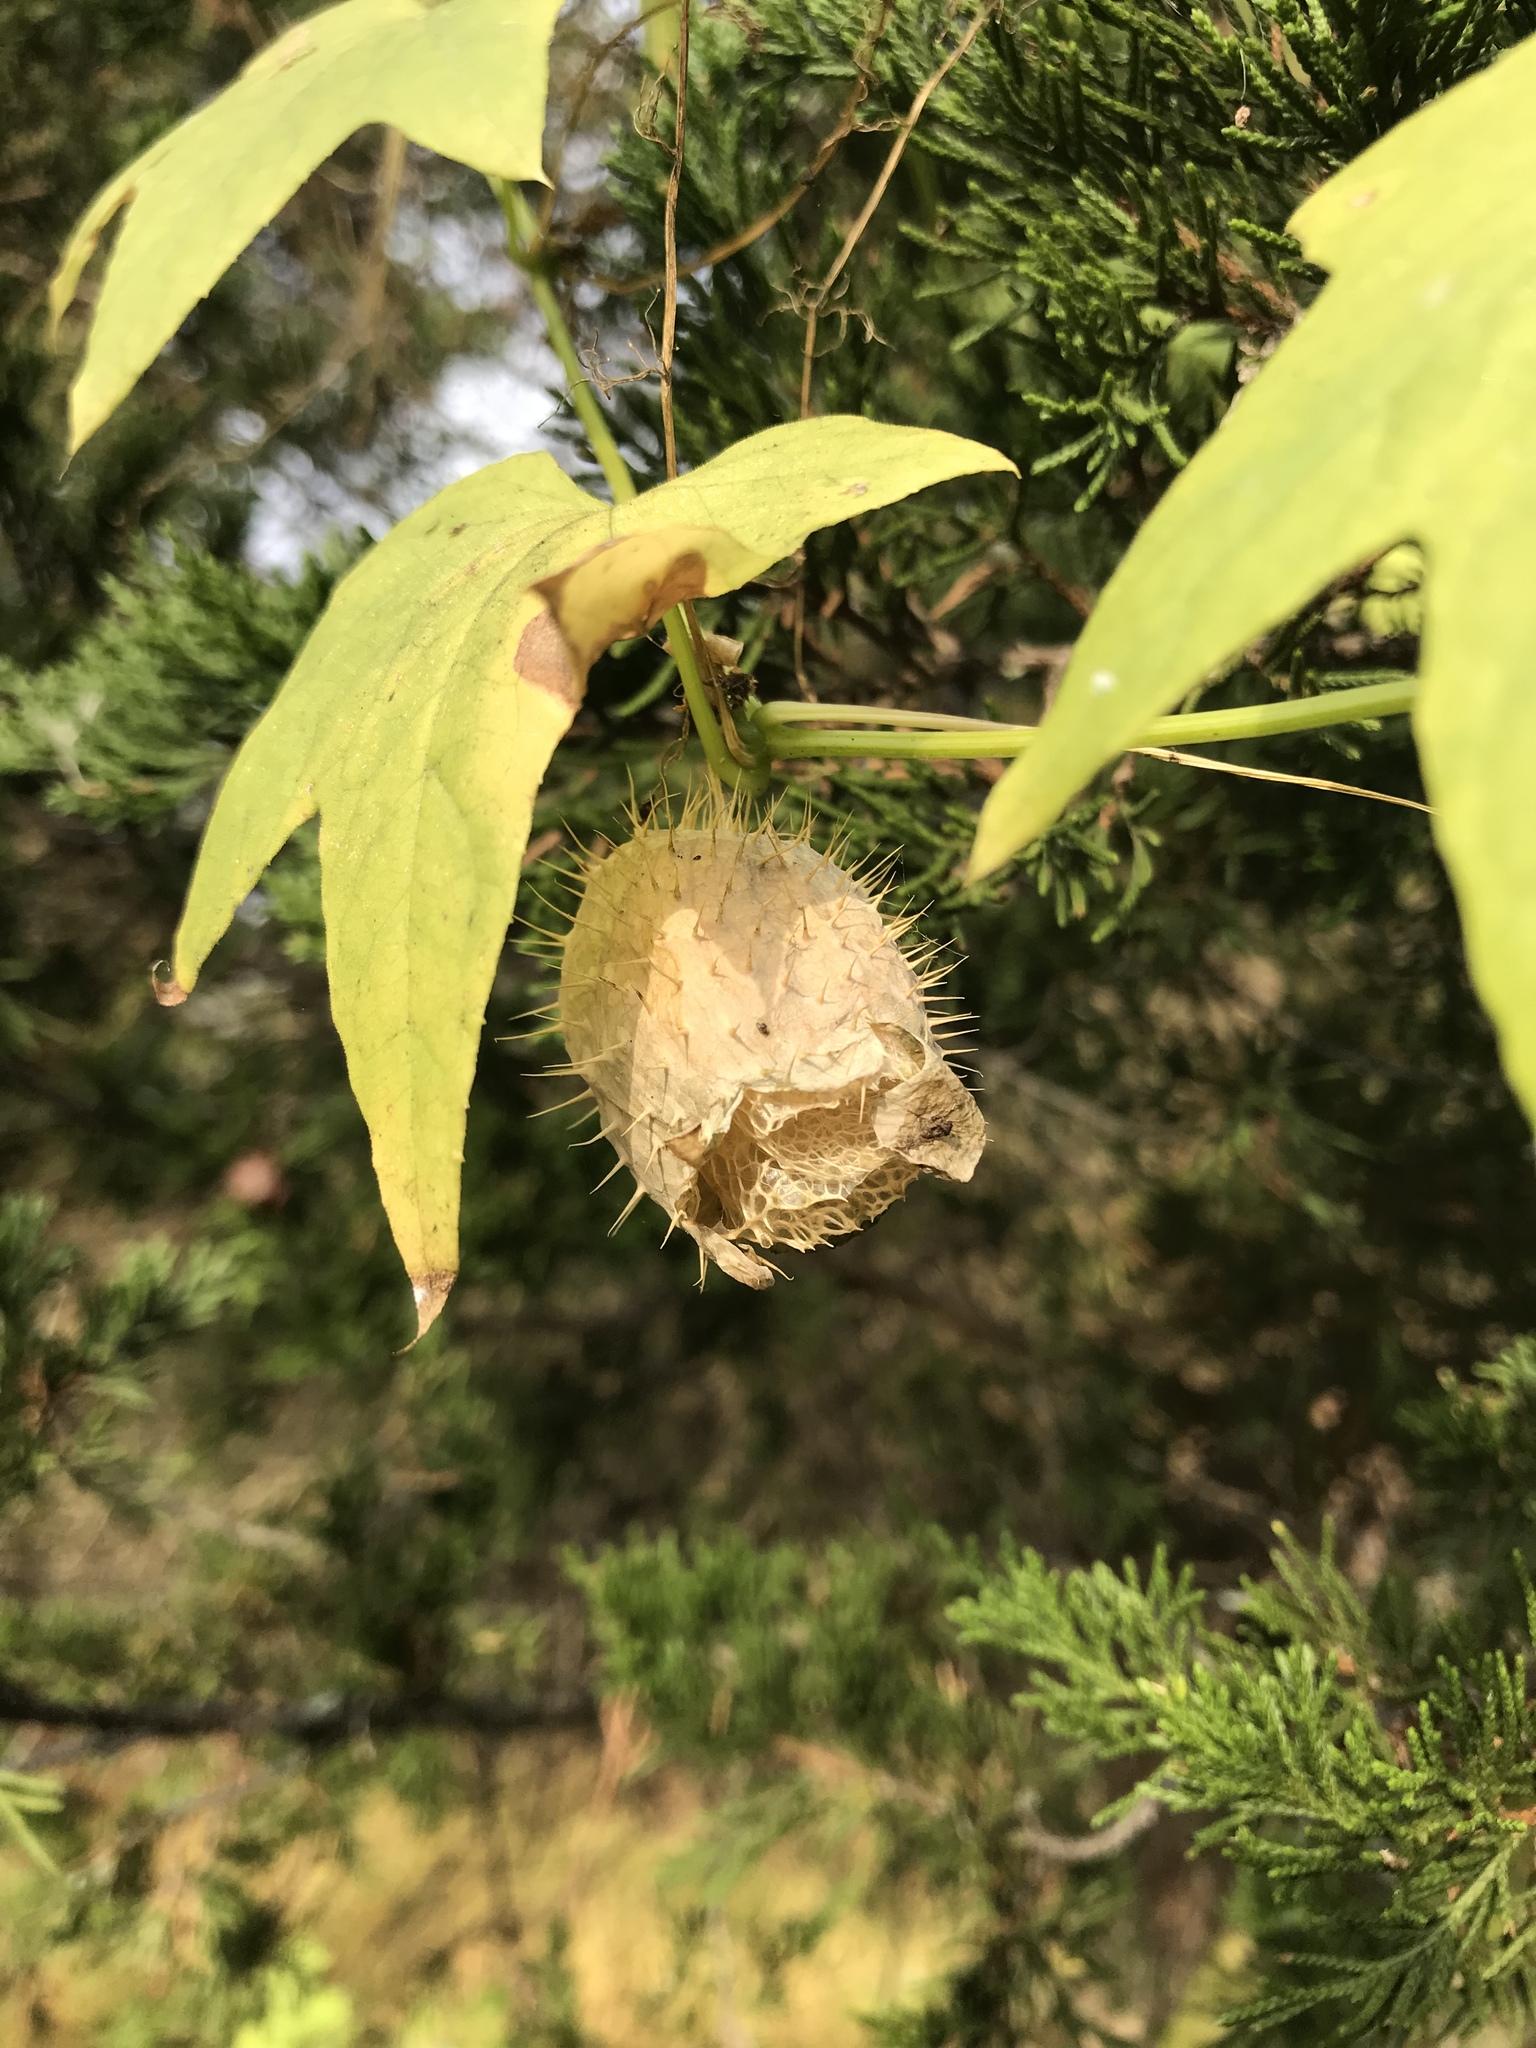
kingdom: Plantae
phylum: Tracheophyta
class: Magnoliopsida
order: Cucurbitales
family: Cucurbitaceae
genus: Echinocystis
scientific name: Echinocystis lobata
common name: Wild cucumber
